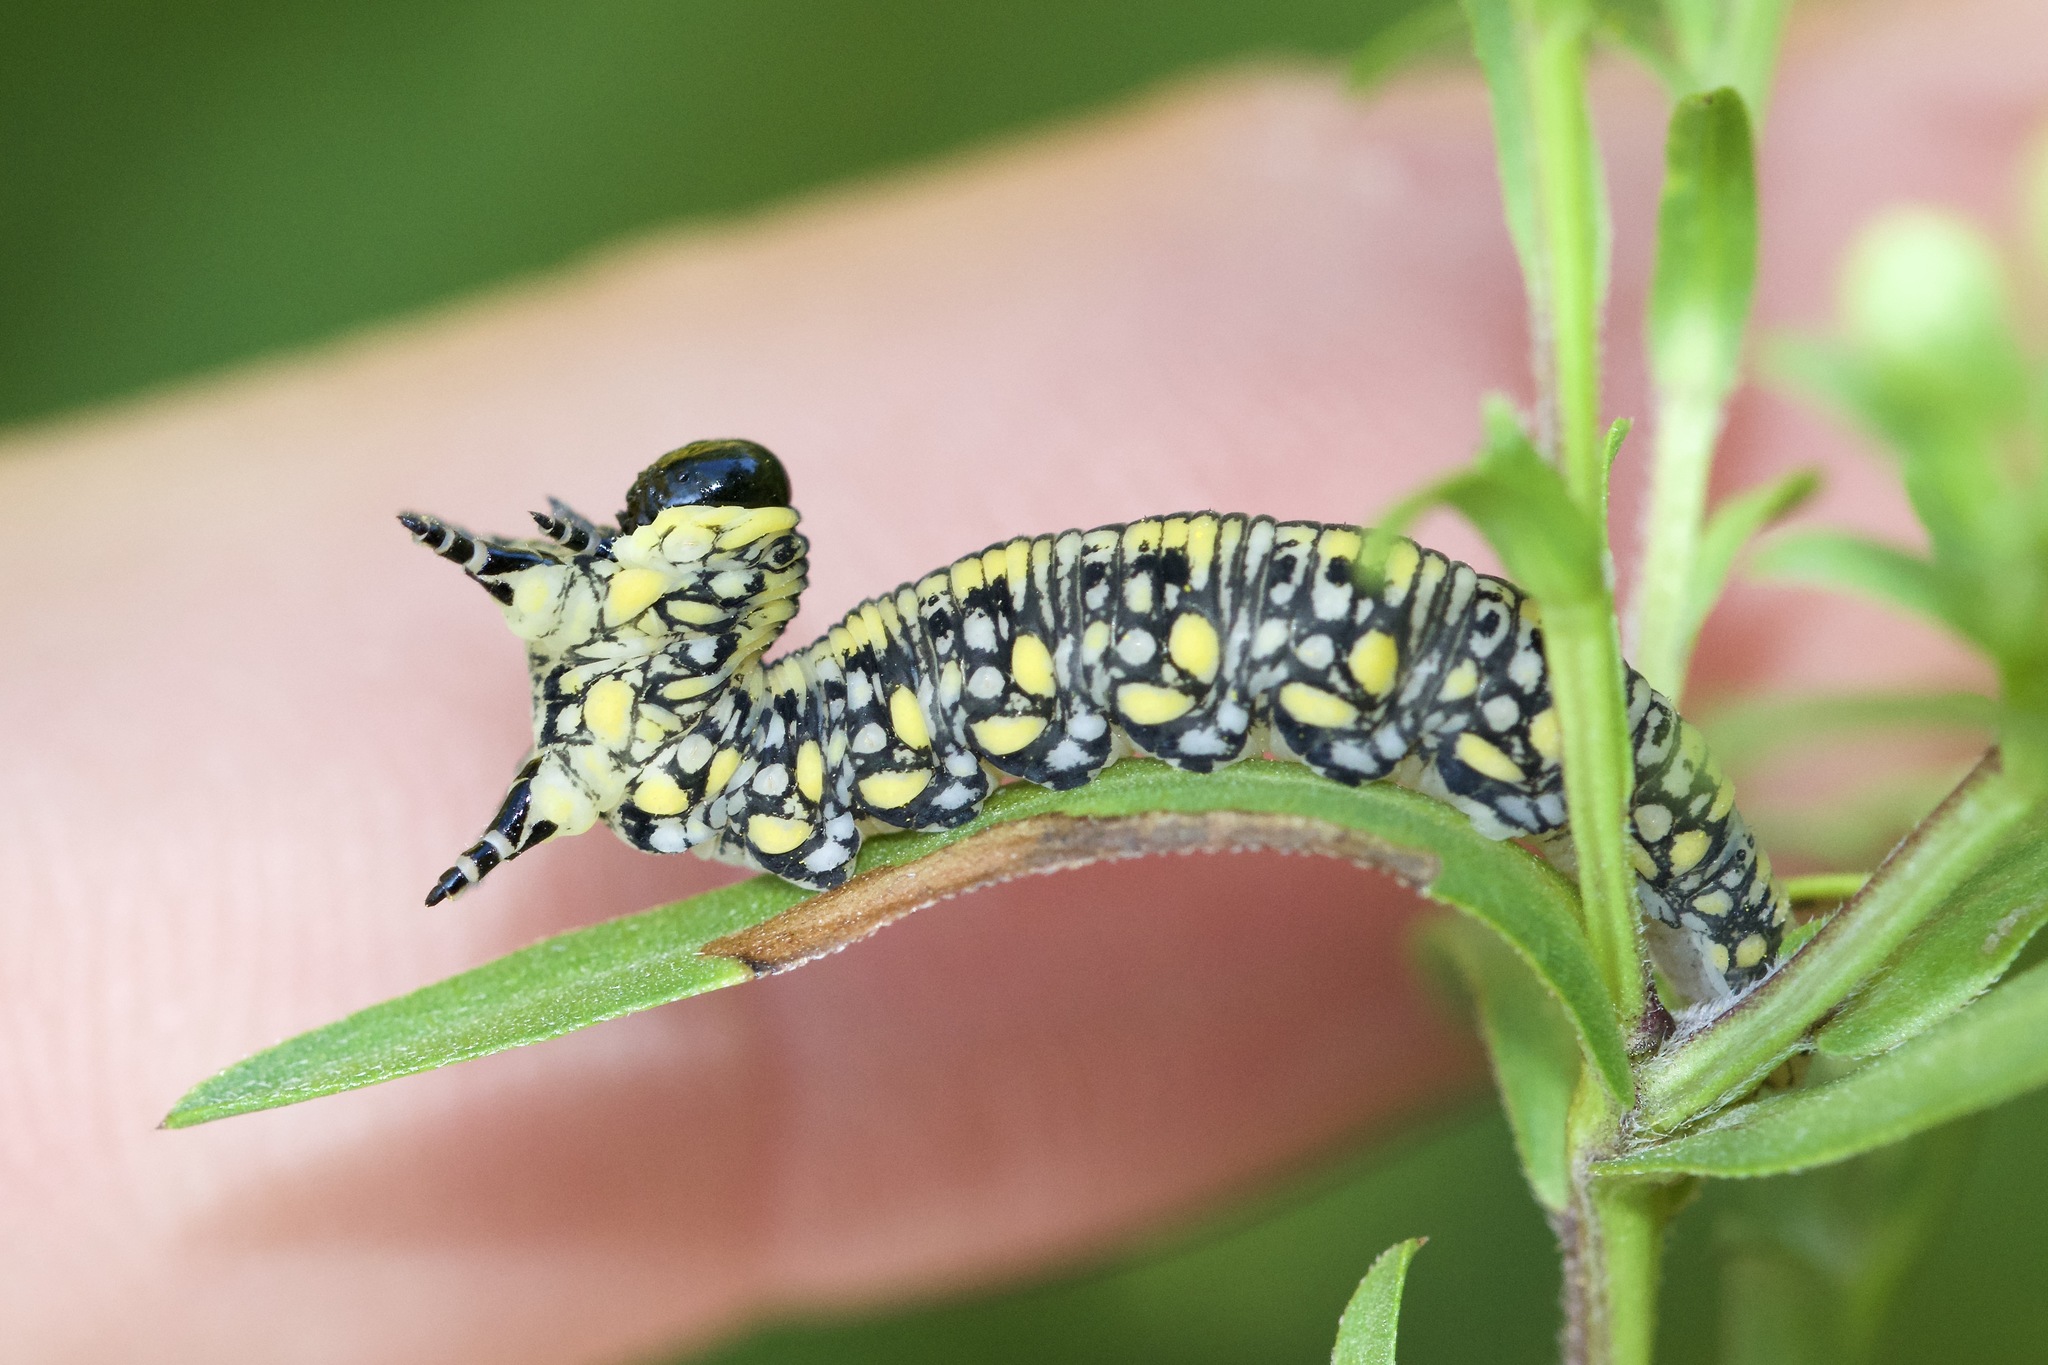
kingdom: Animalia
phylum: Arthropoda
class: Insecta
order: Hymenoptera
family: Diprionidae
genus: Diprion
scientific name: Diprion similis
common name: Pine sawfly
